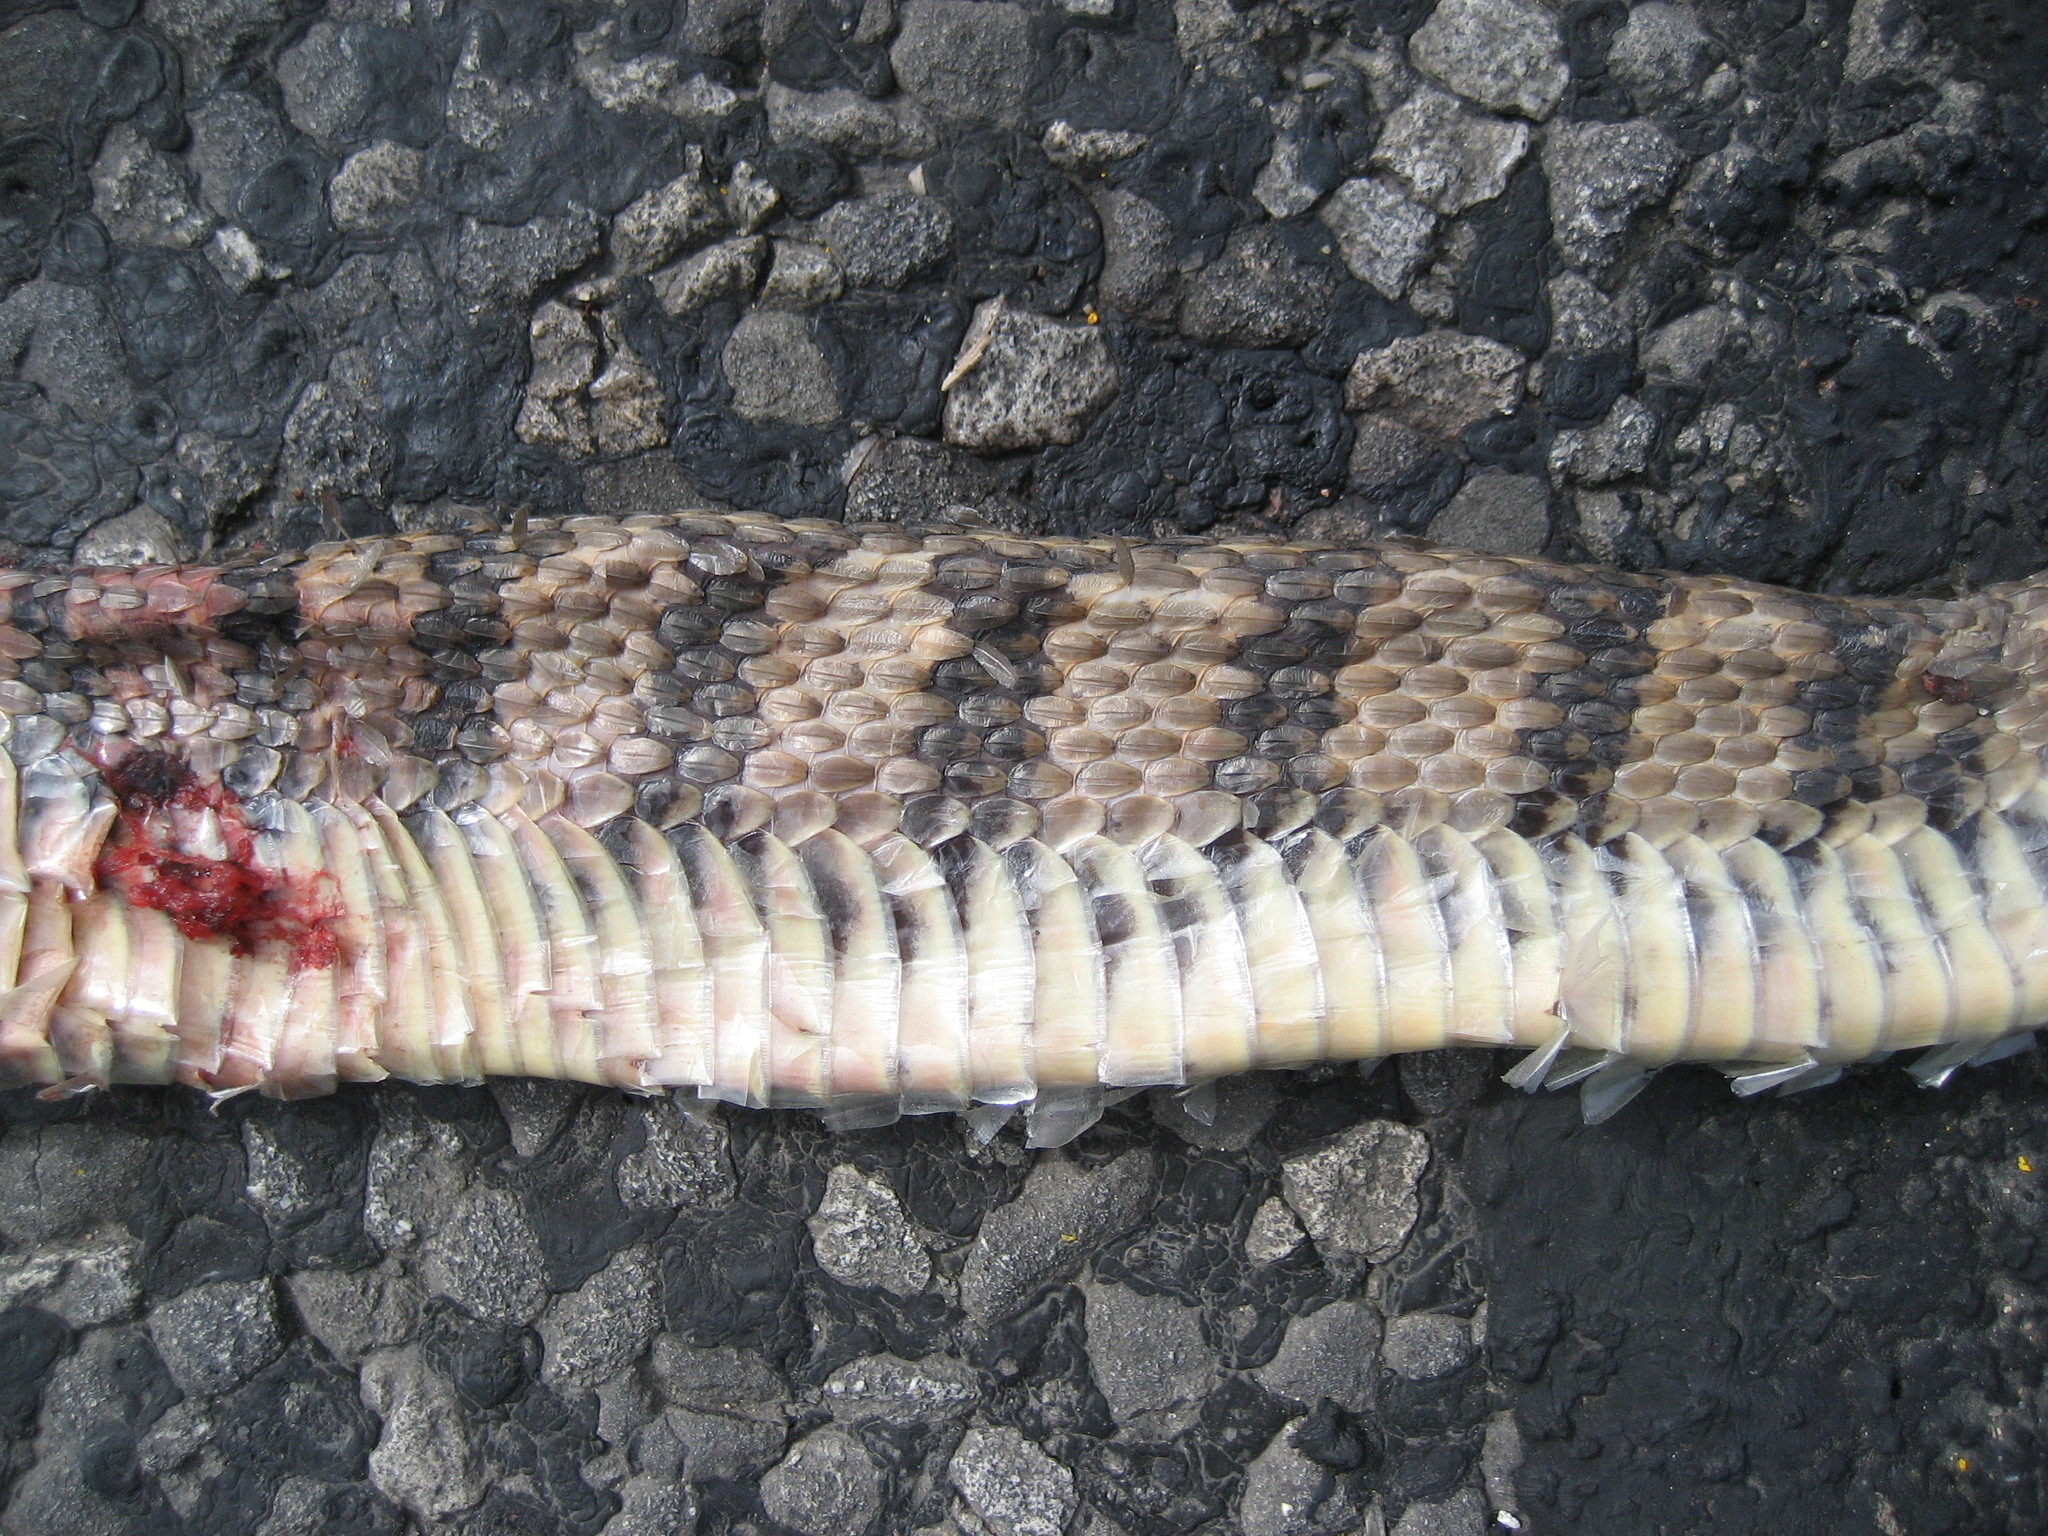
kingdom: Animalia
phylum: Chordata
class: Squamata
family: Colubridae
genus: Nerodia
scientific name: Nerodia rhombifer
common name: Diamondback water snake
